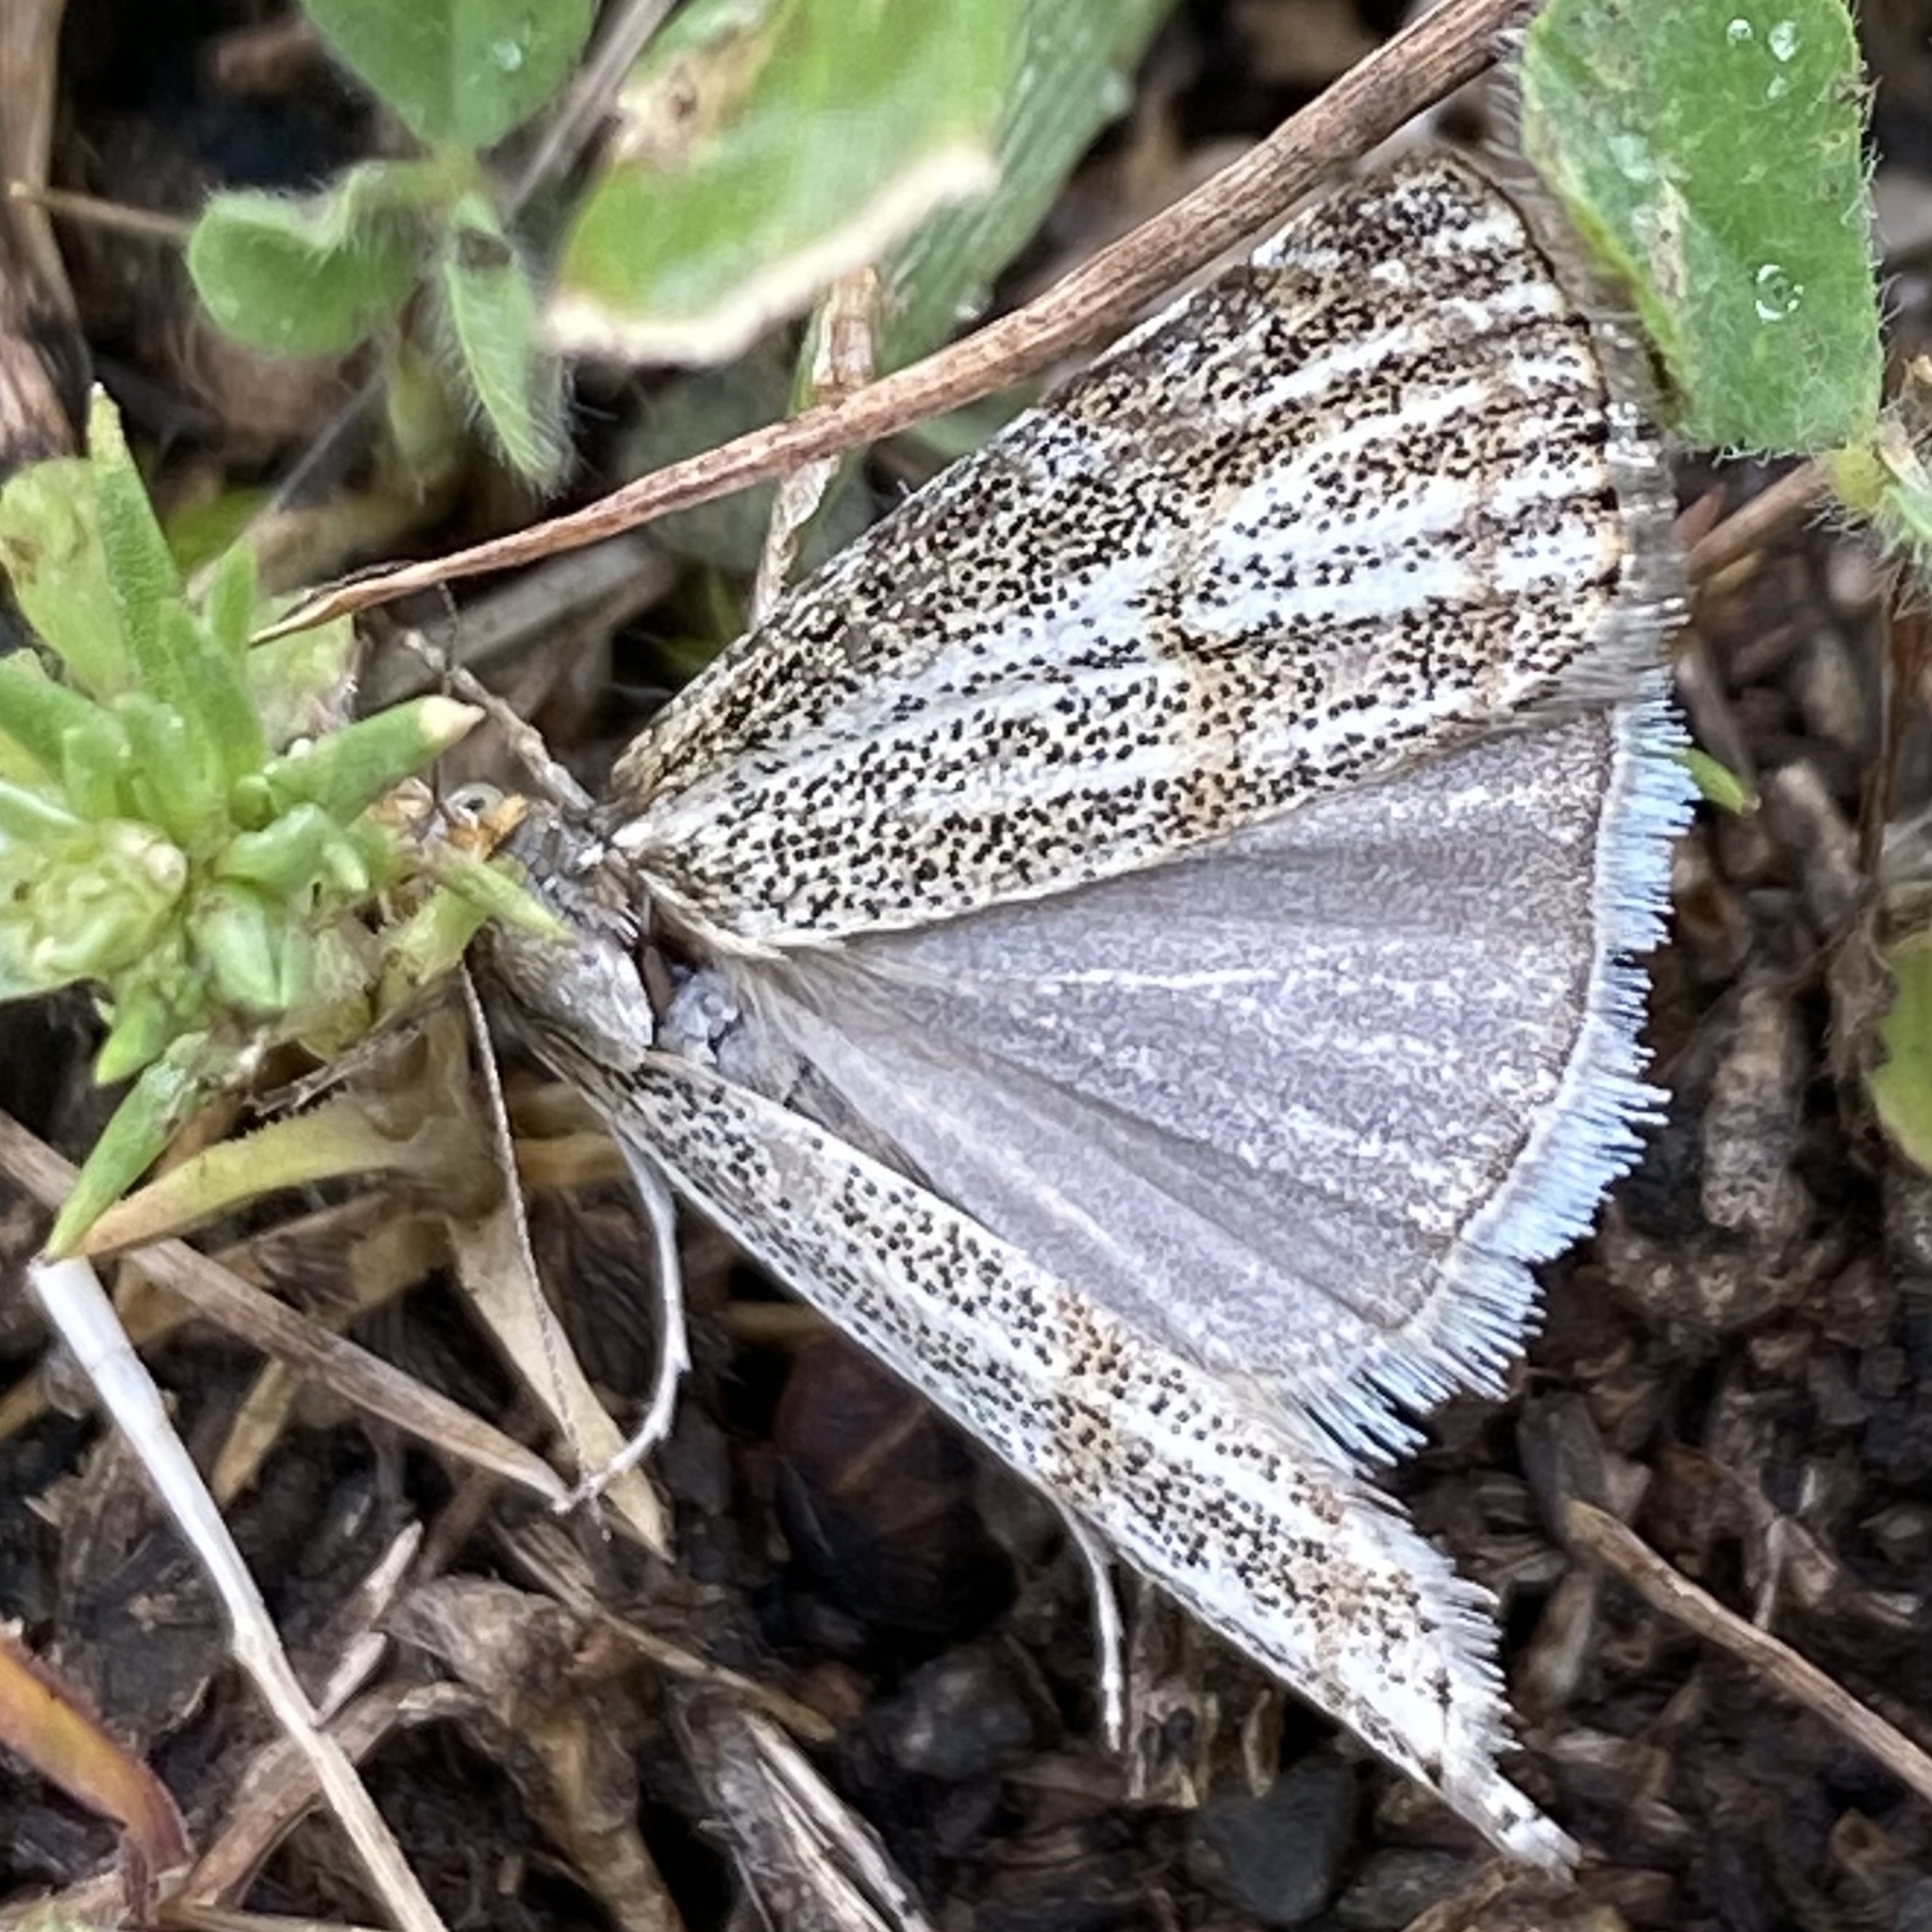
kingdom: Animalia
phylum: Arthropoda
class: Insecta
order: Lepidoptera
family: Crambidae
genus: Thisanotia
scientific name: Thisanotia chrysonuchella
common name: Powdered grass-veneer
